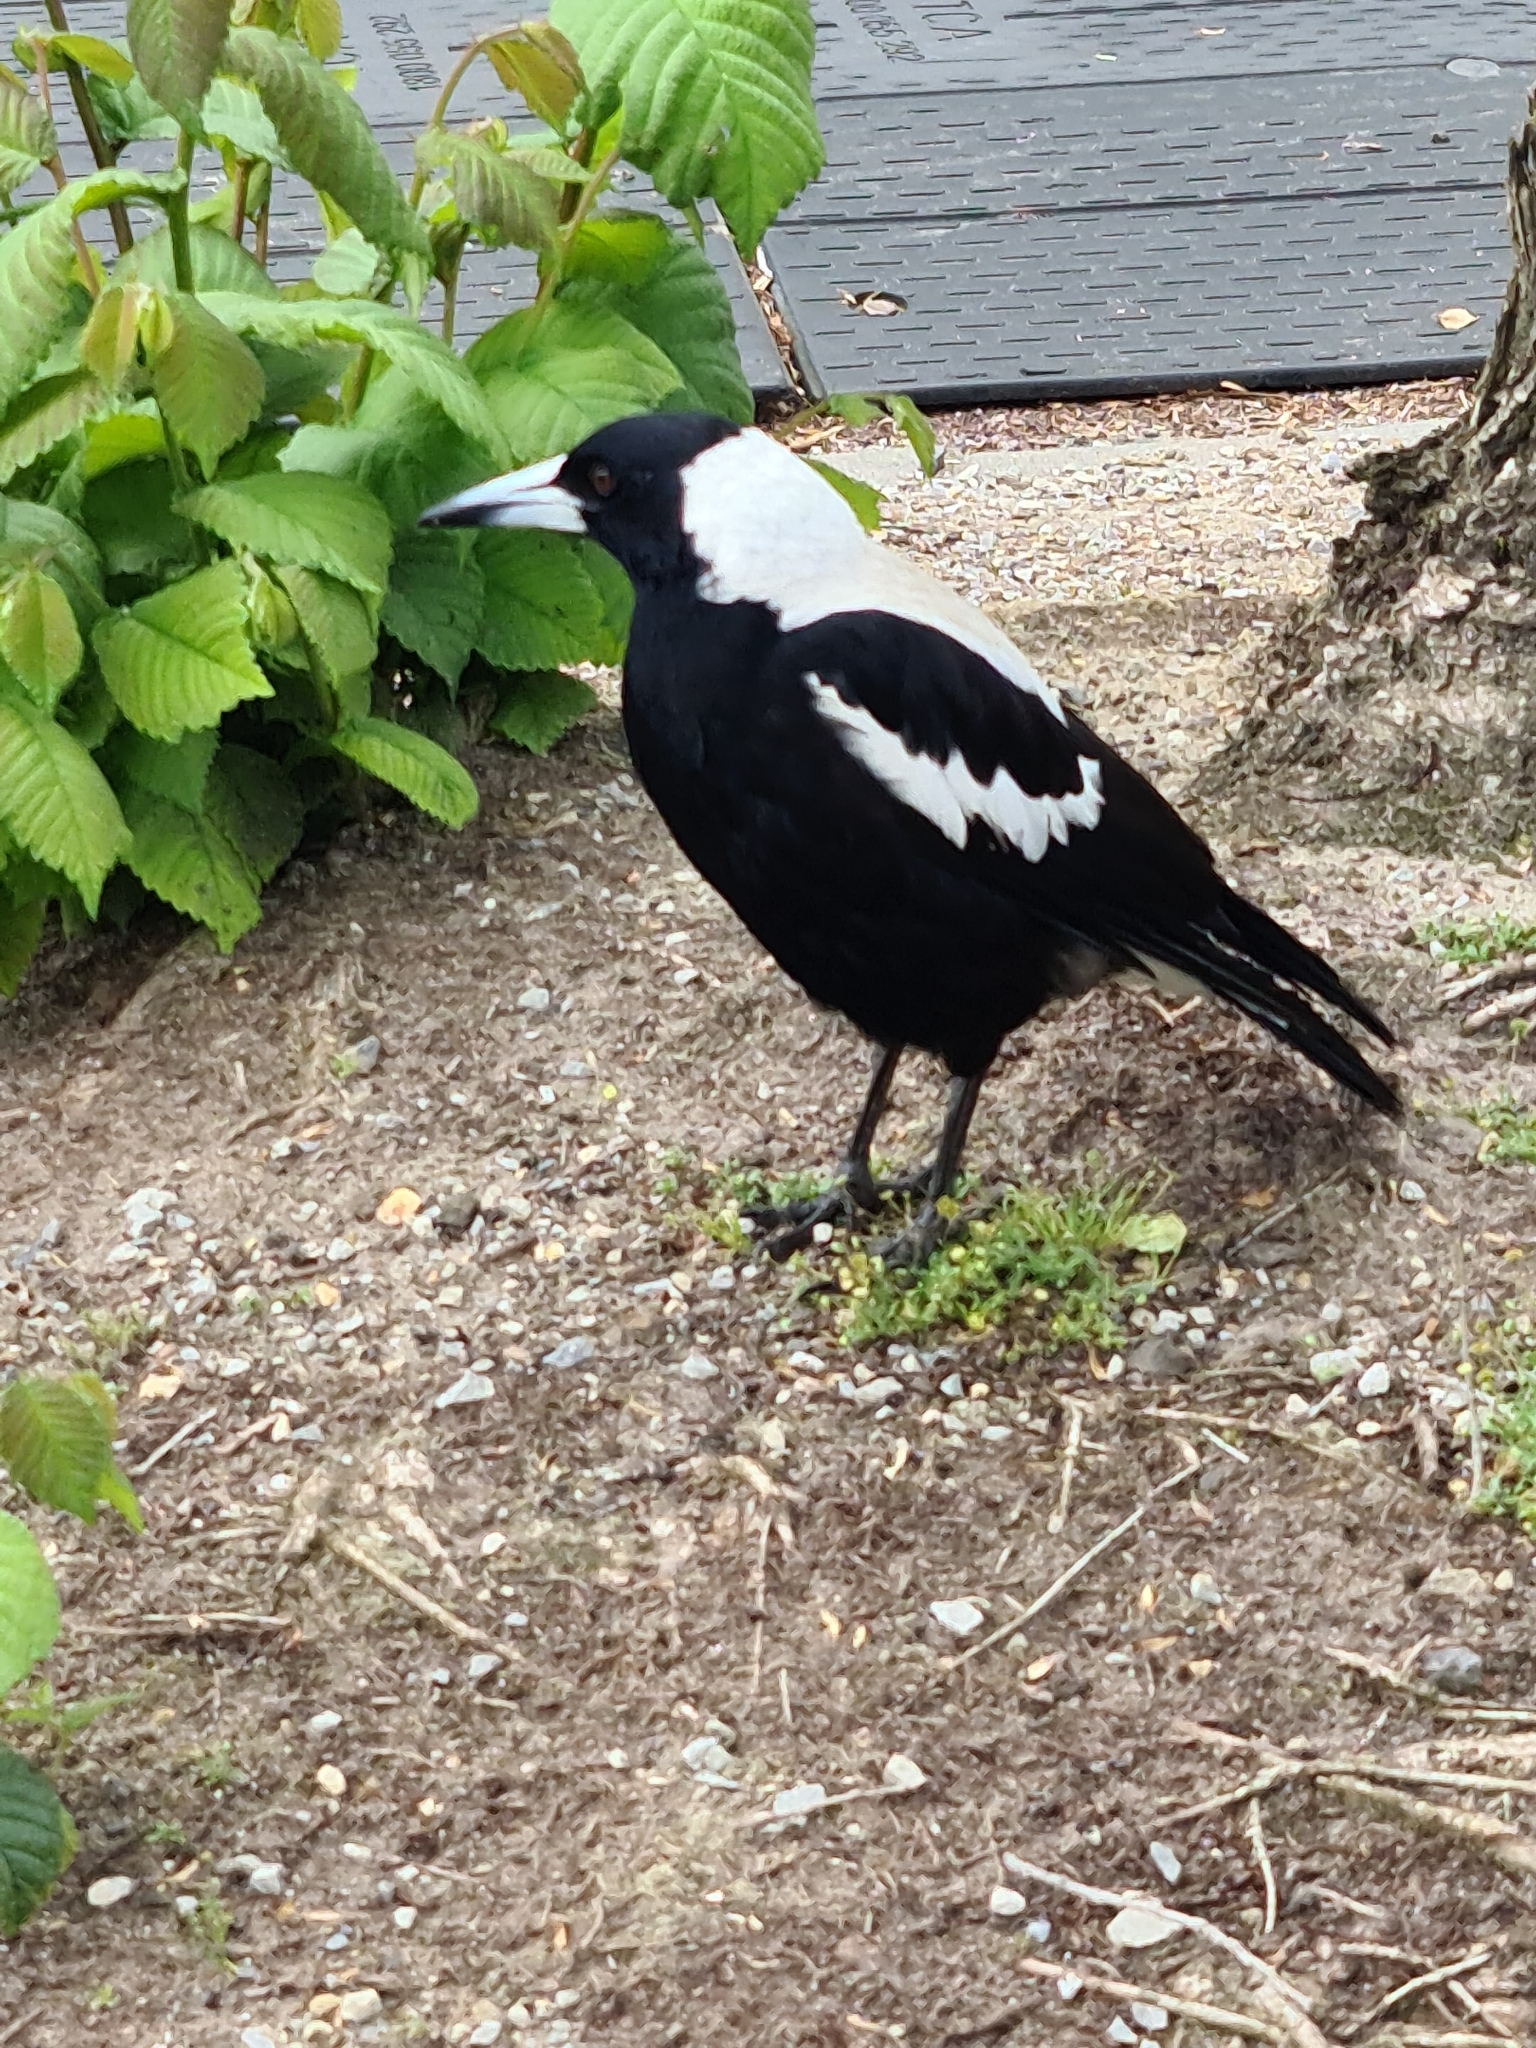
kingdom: Animalia
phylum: Chordata
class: Aves
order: Passeriformes
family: Cracticidae
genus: Gymnorhina
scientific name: Gymnorhina tibicen
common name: Australian magpie
